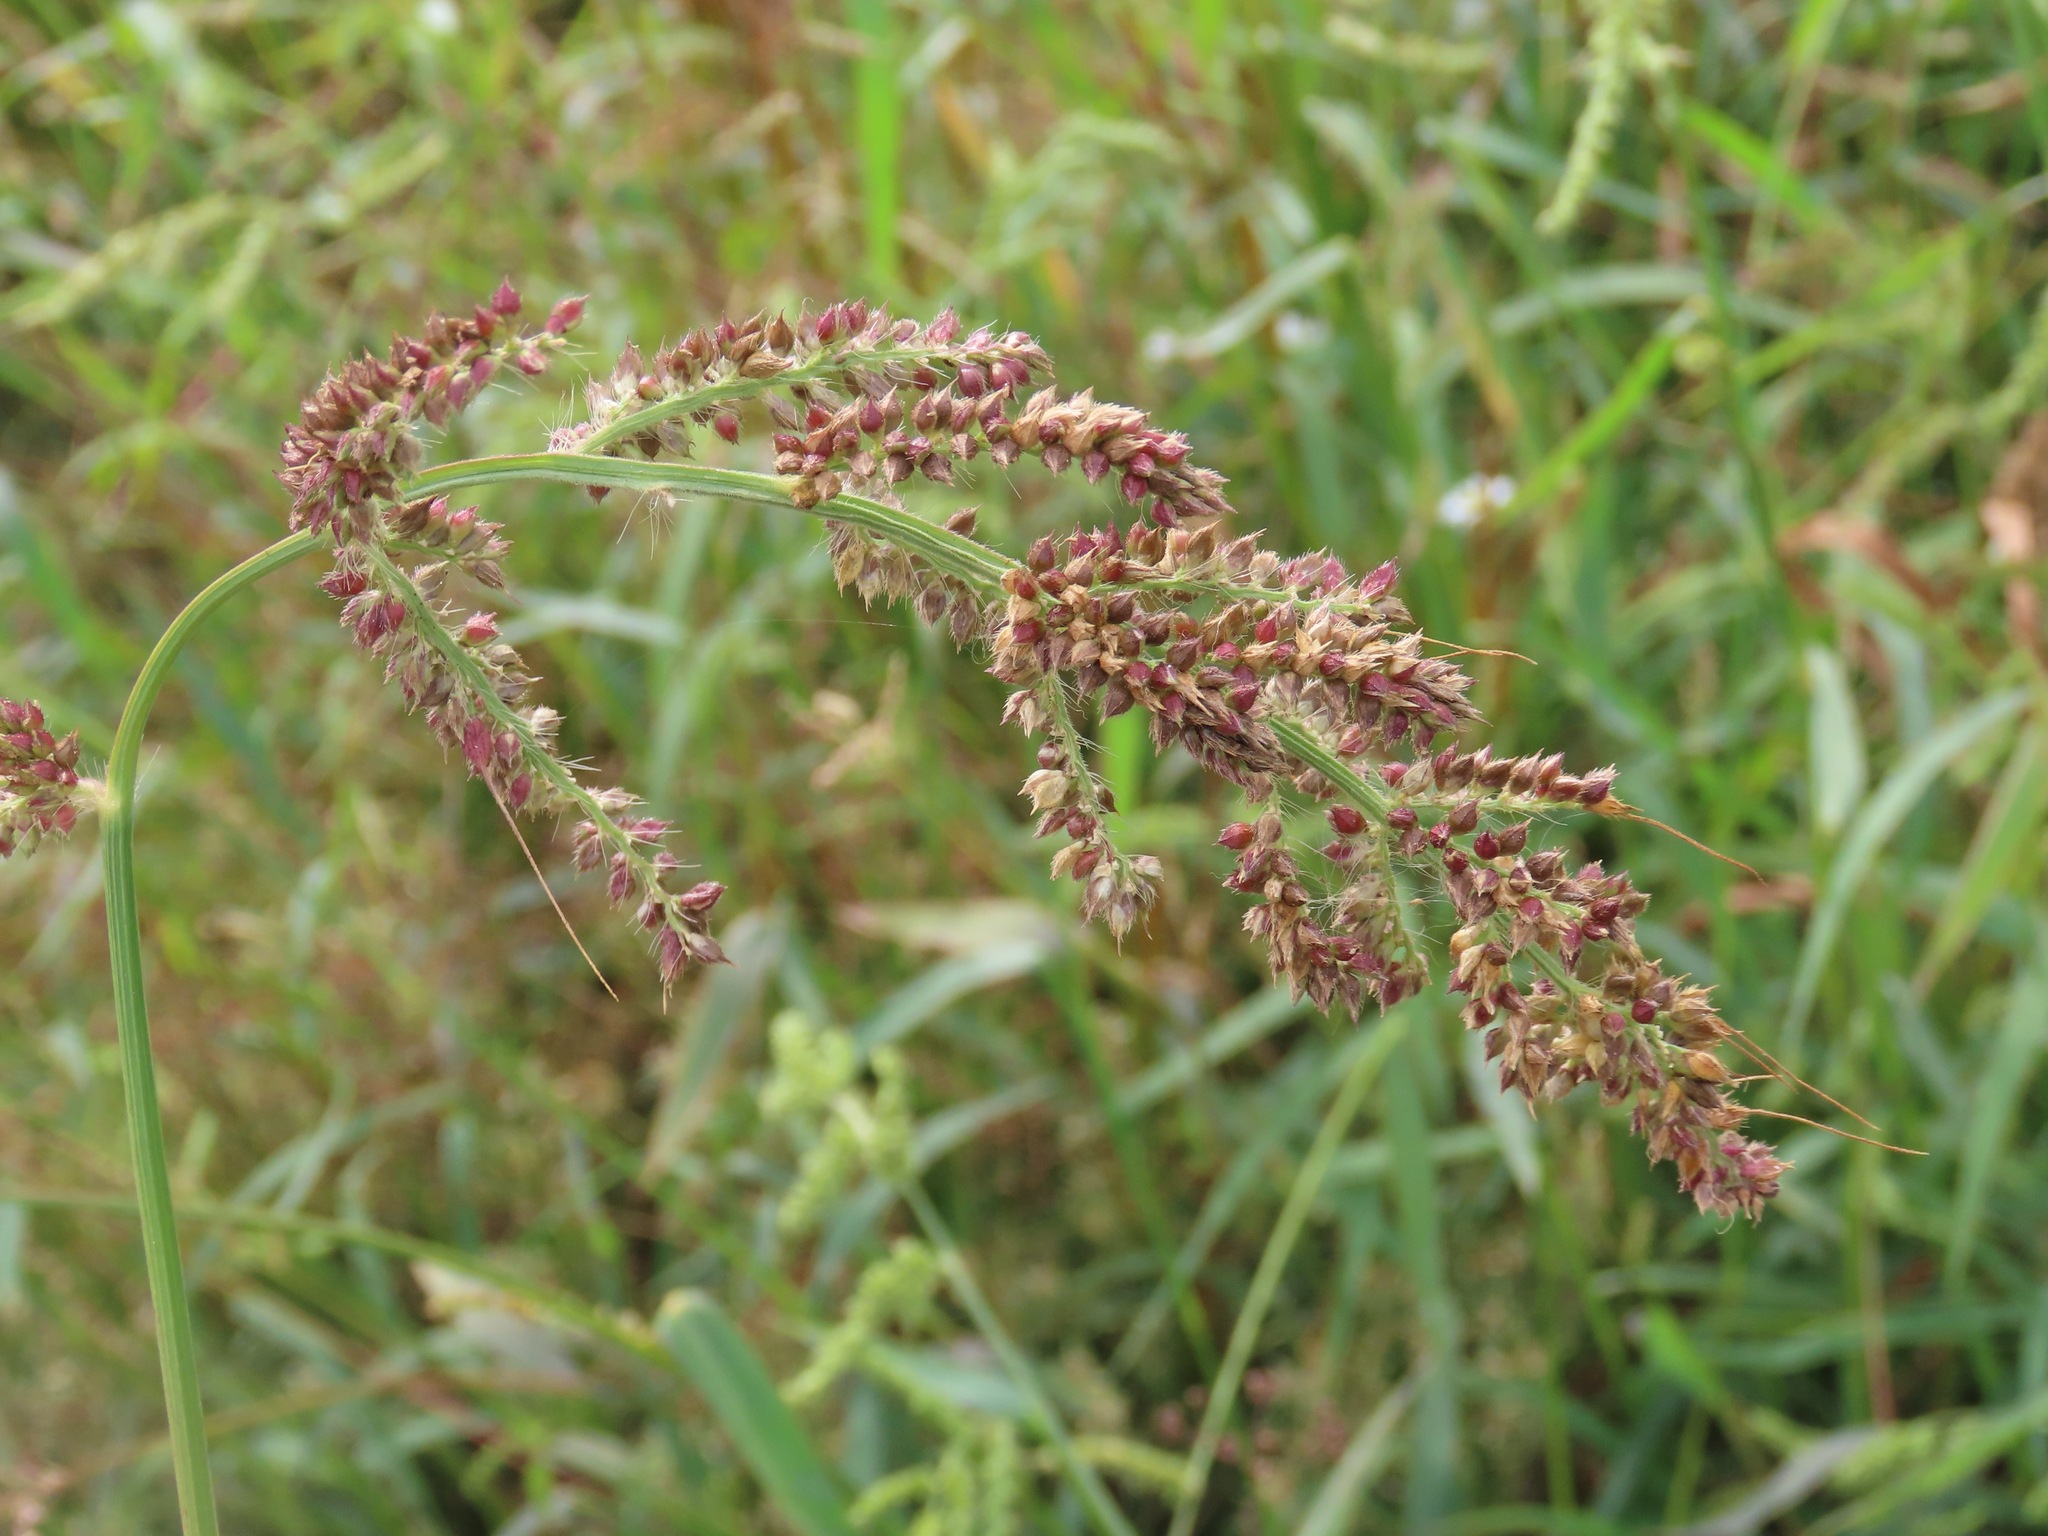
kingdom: Plantae
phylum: Tracheophyta
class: Liliopsida
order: Poales
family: Poaceae
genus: Echinochloa
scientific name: Echinochloa crus-galli
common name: Cockspur
